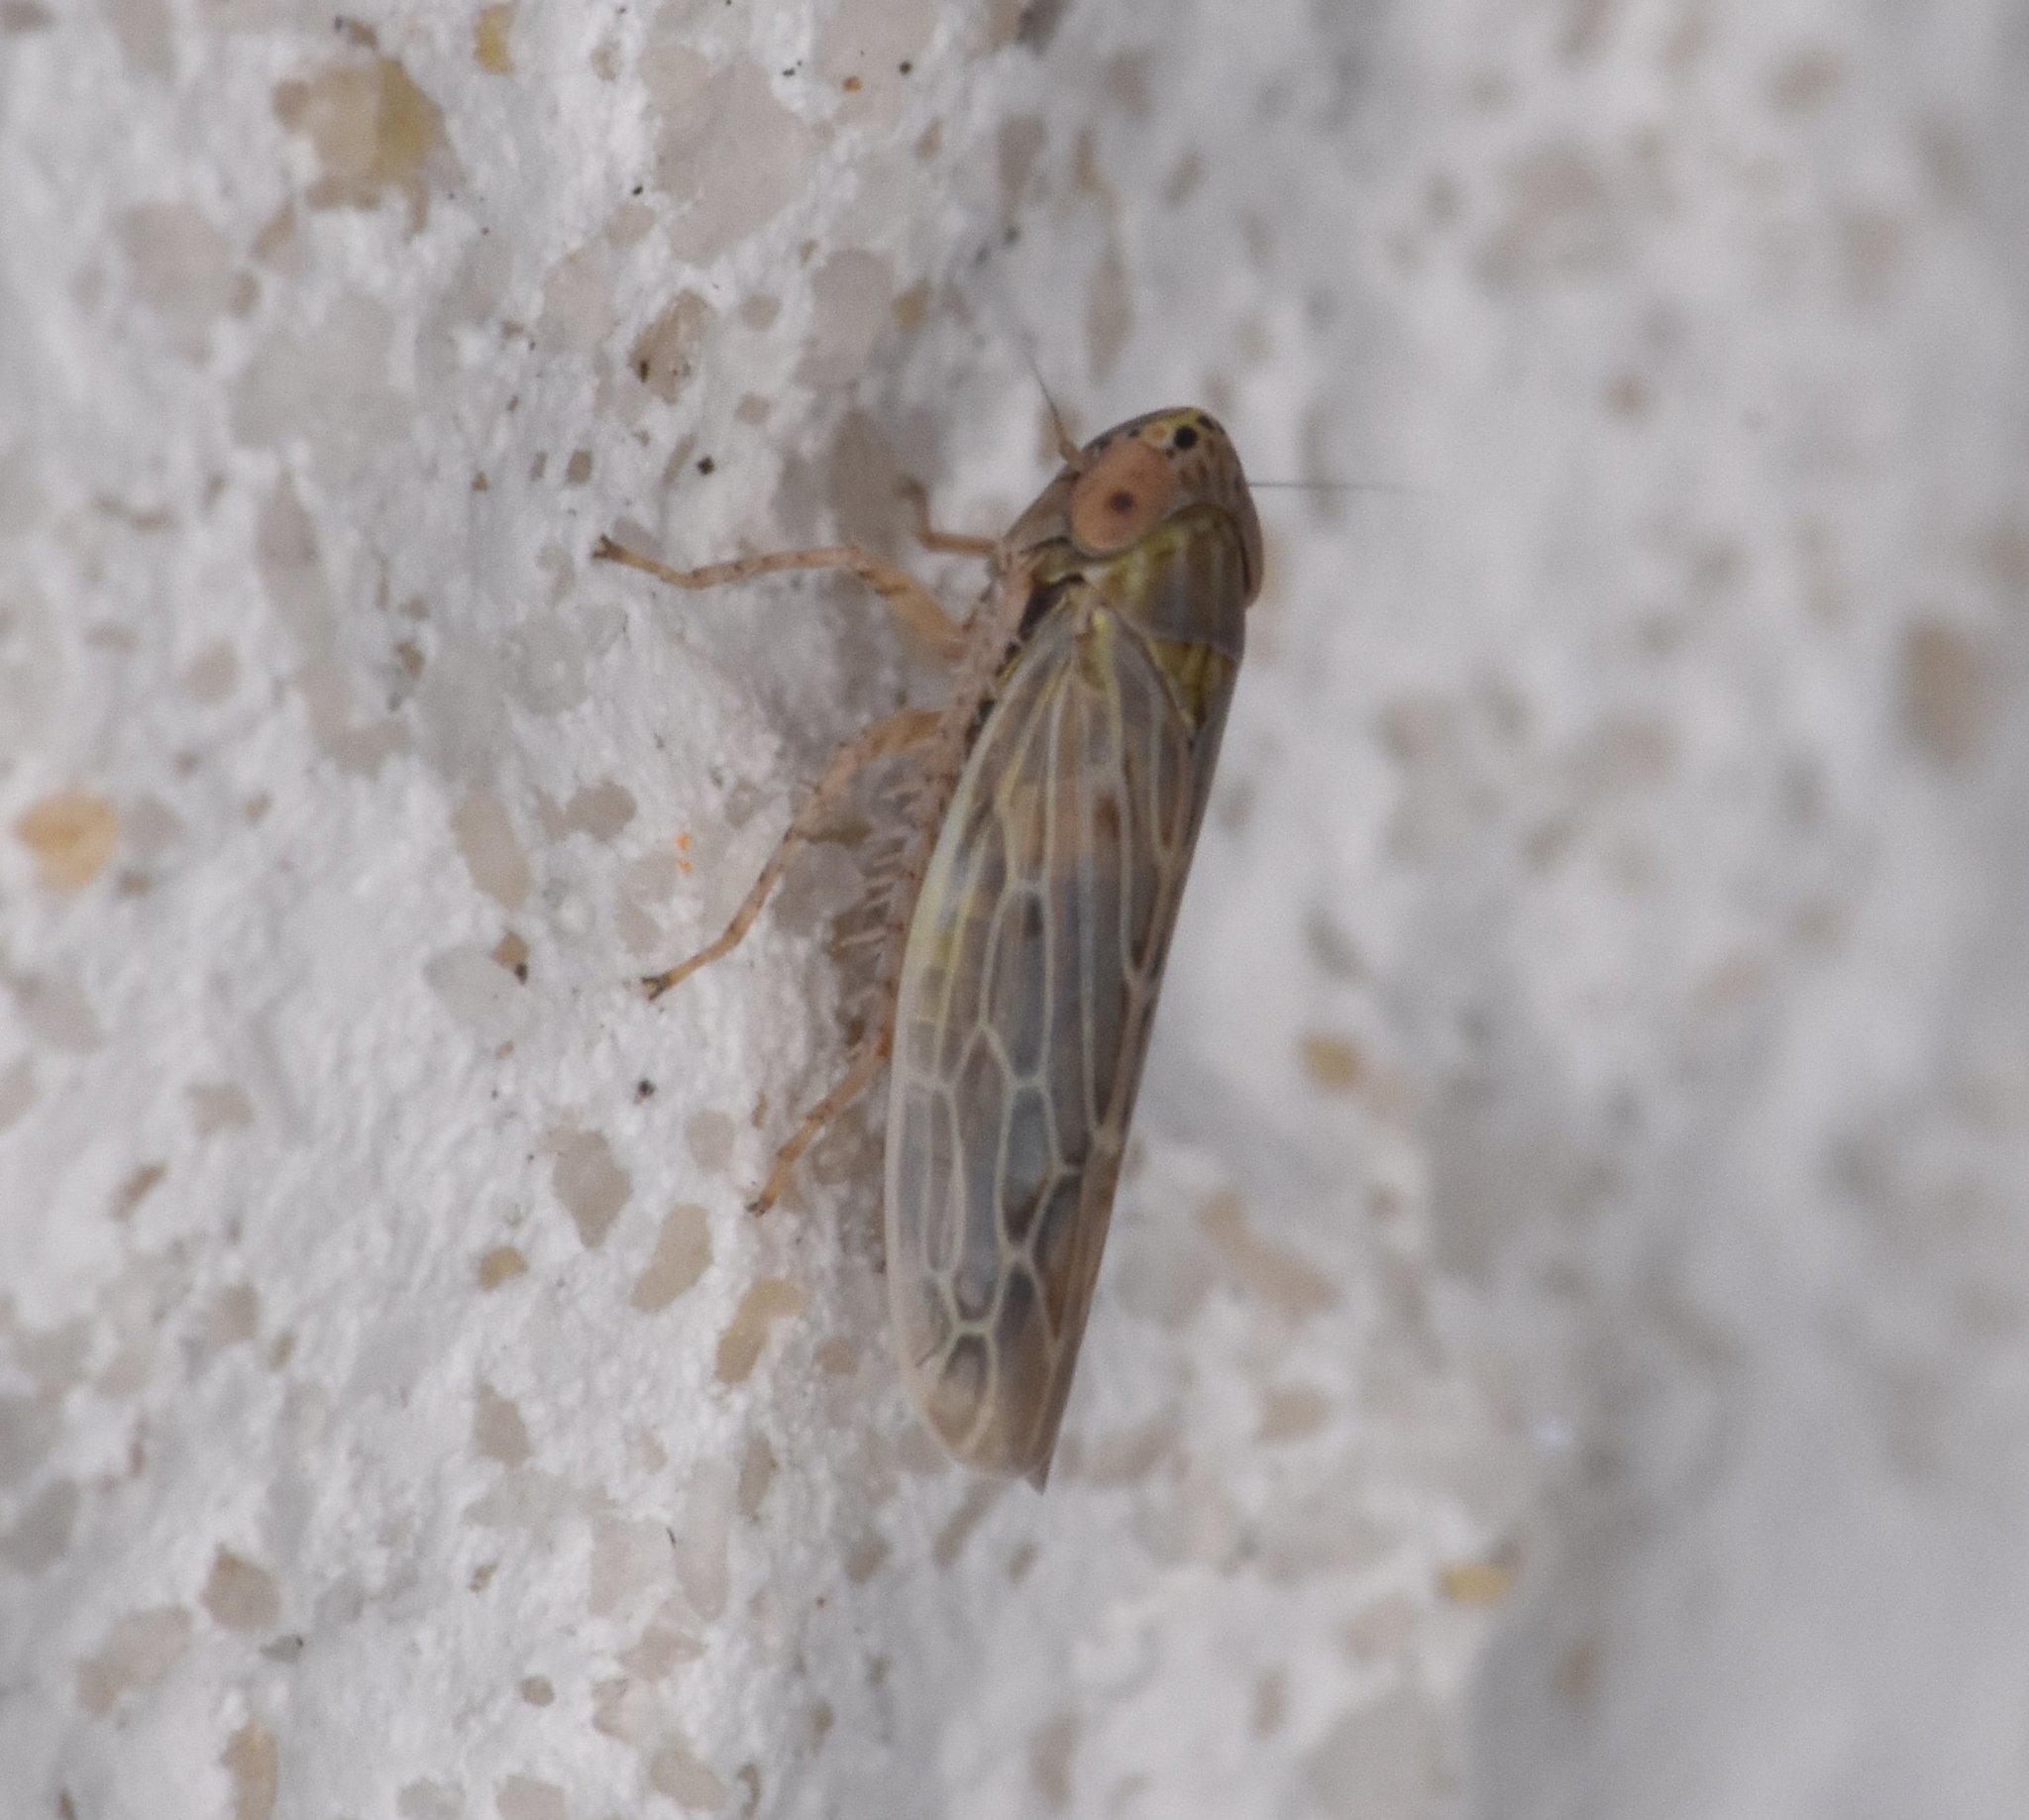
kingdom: Animalia
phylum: Arthropoda
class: Insecta
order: Hemiptera
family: Cicadellidae
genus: Graminella
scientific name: Graminella sonora
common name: Lesser lawn leafhopper
